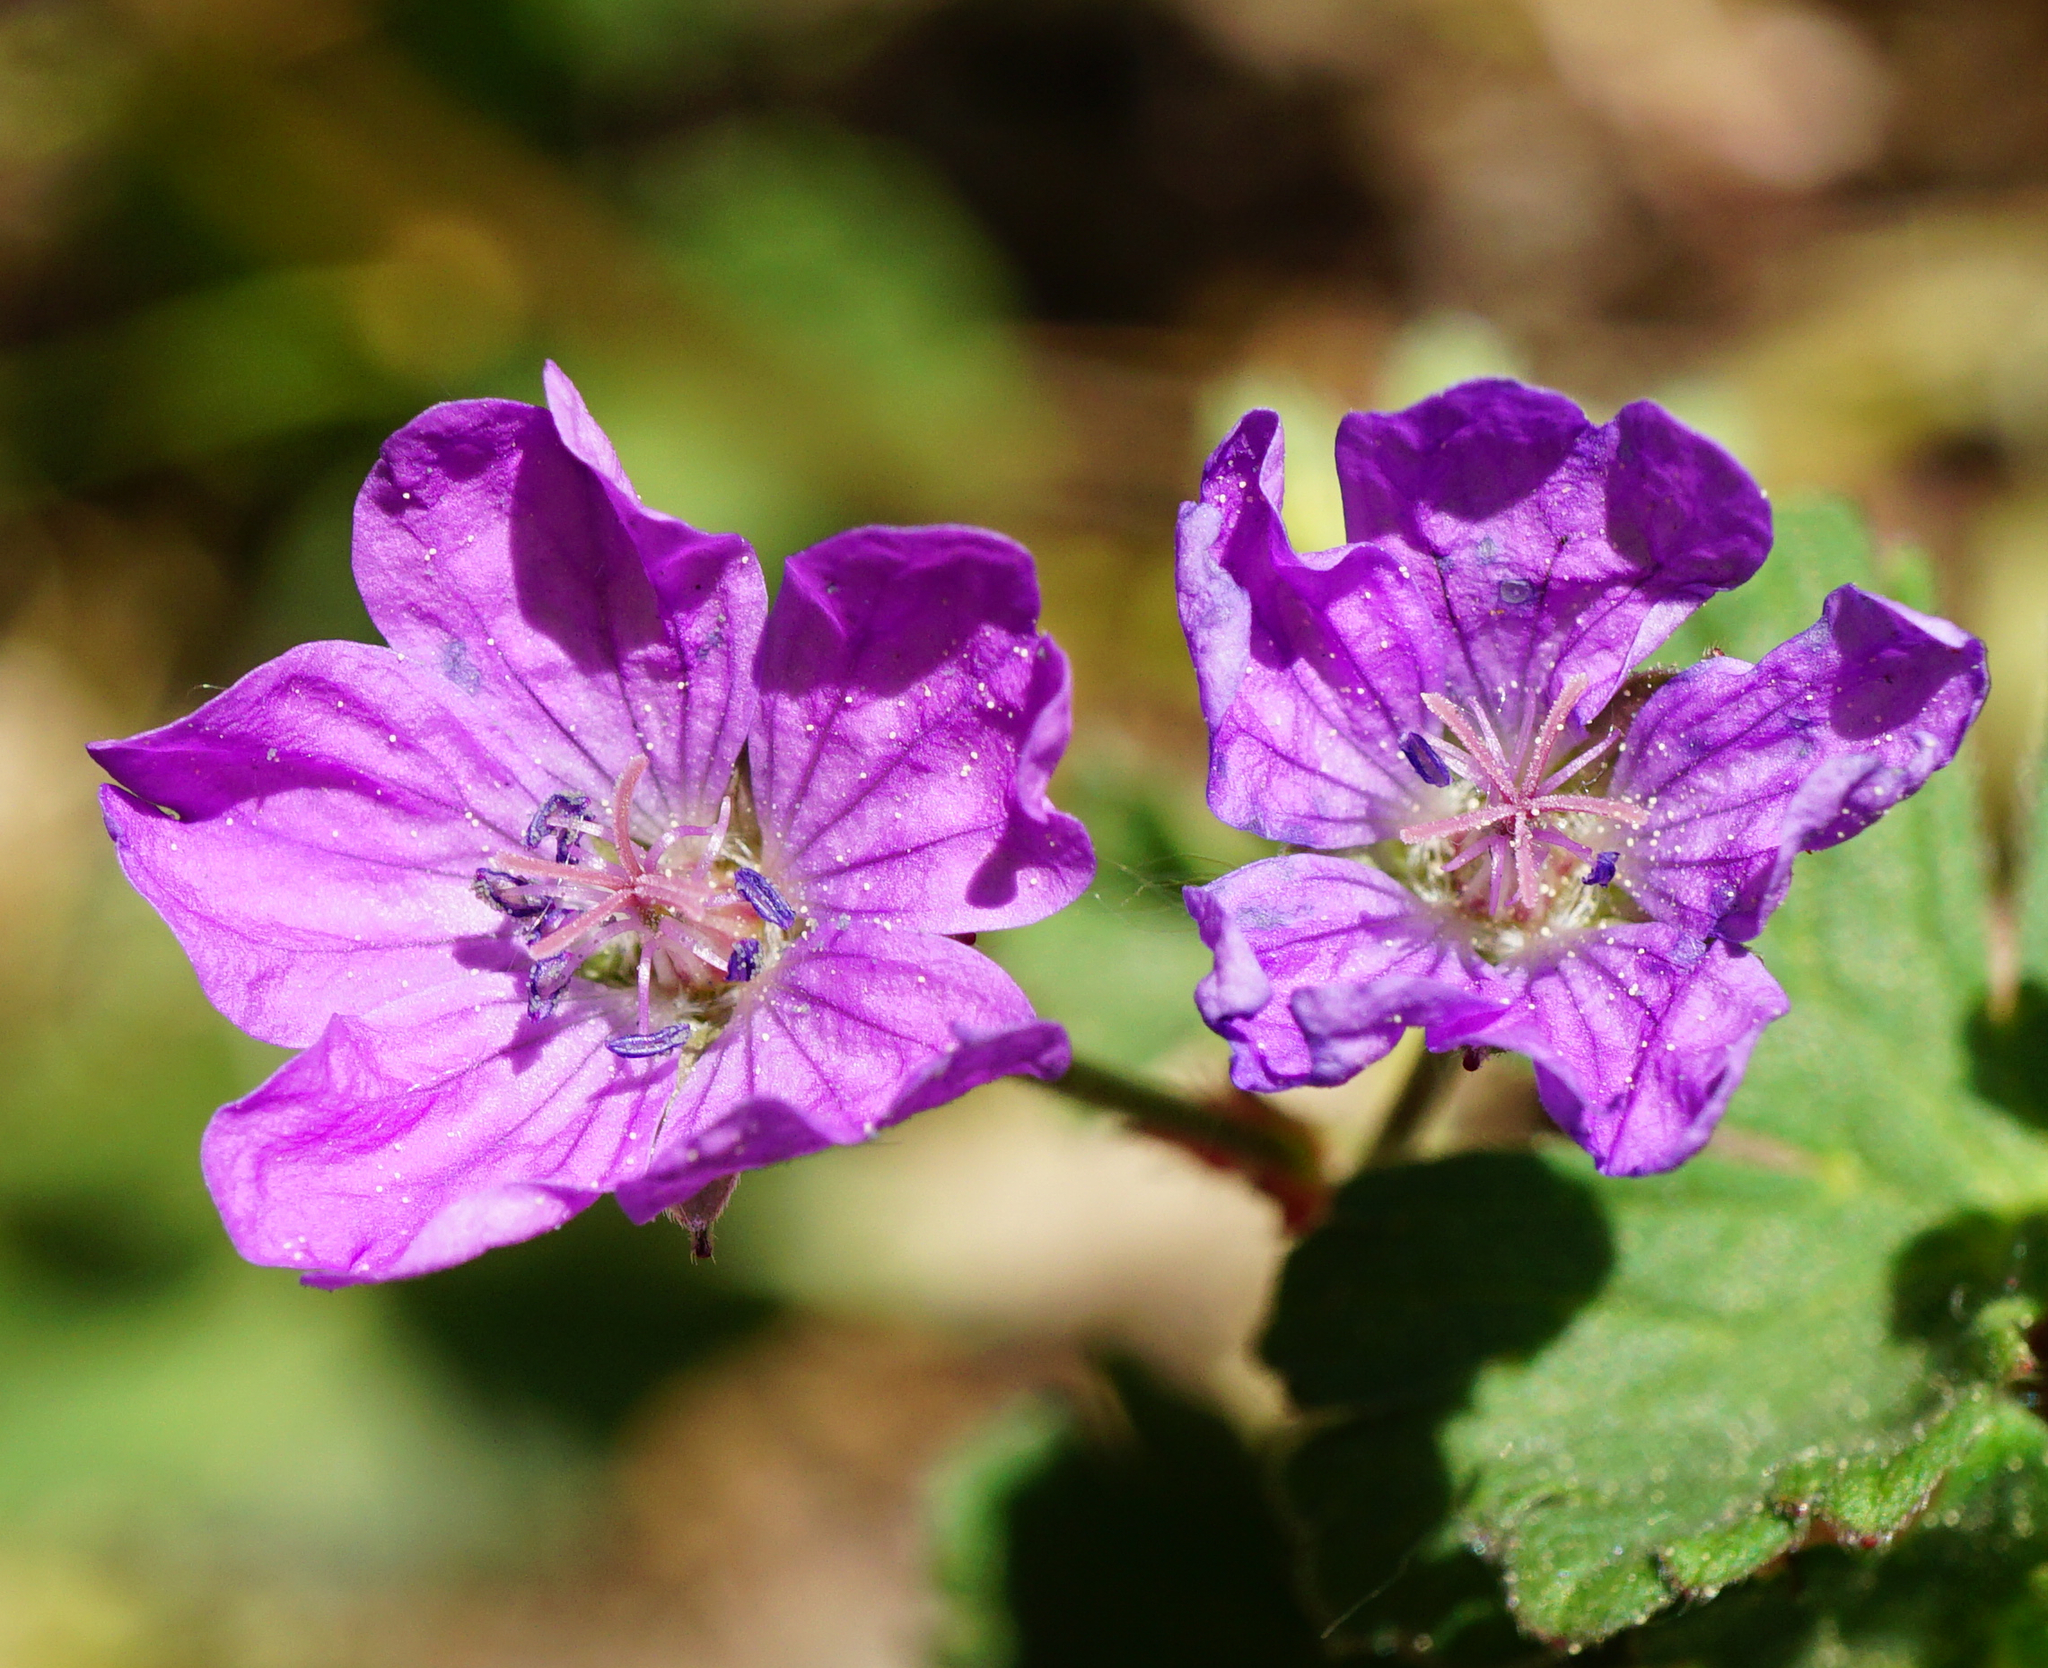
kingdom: Plantae
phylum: Tracheophyta
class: Magnoliopsida
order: Geraniales
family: Geraniaceae
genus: Geranium
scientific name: Geranium pyrenaicum
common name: Hedgerow crane's-bill
